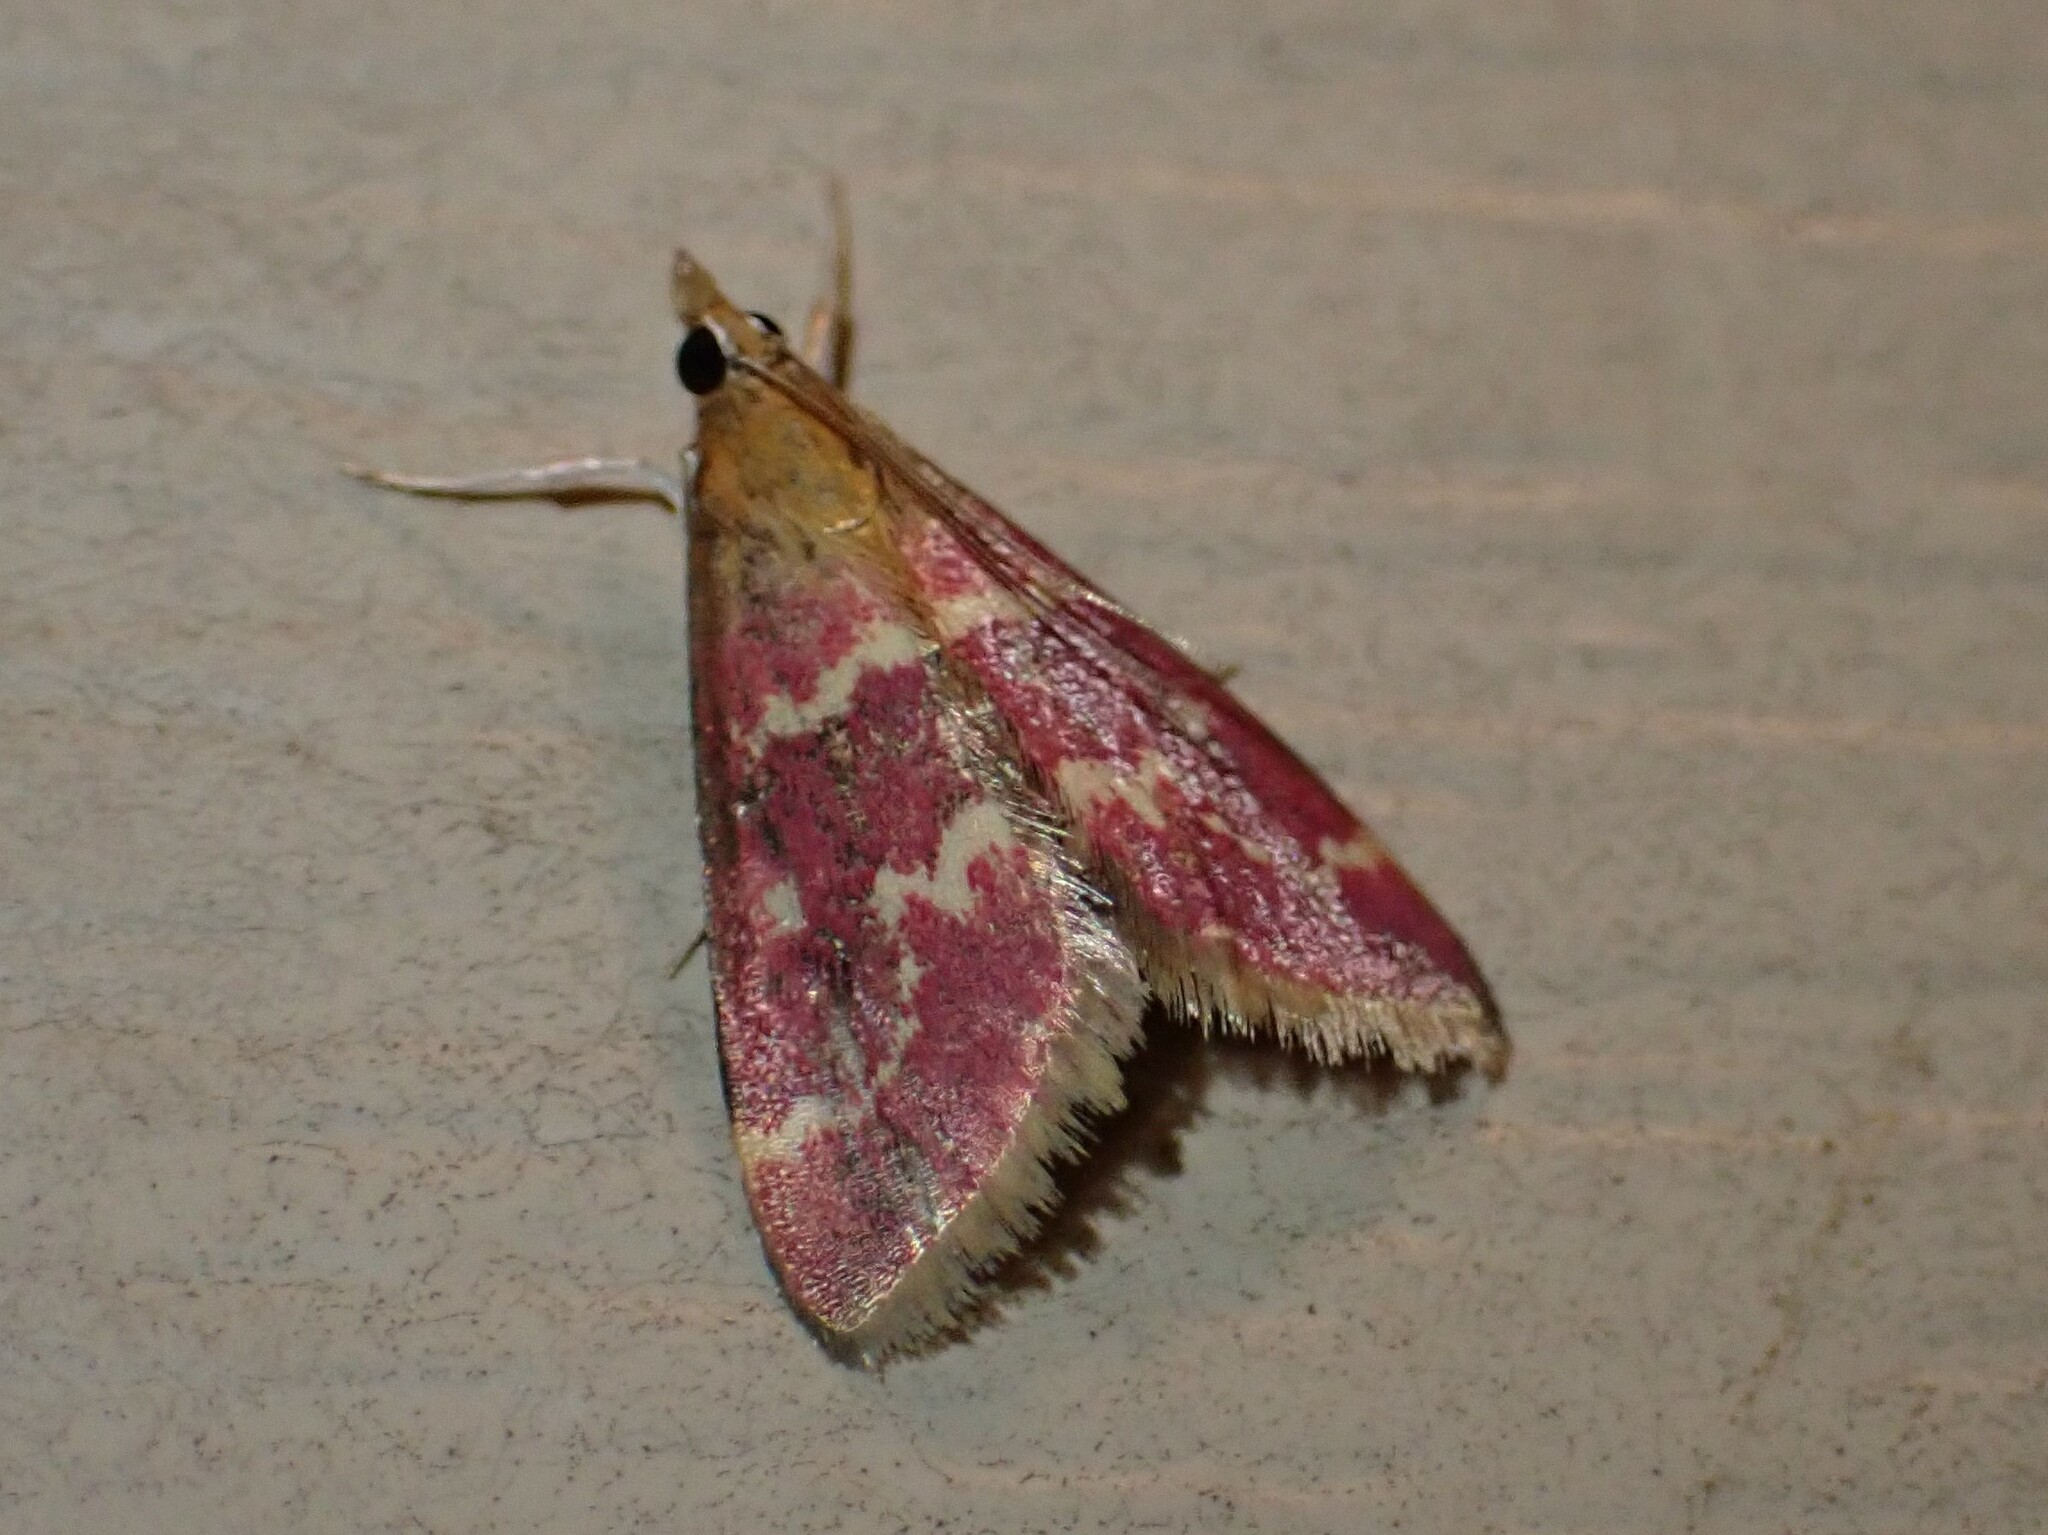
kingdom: Animalia
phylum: Arthropoda
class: Insecta
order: Lepidoptera
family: Crambidae
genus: Pyrausta
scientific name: Pyrausta signatalis
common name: Raspberry pyrausta moth
